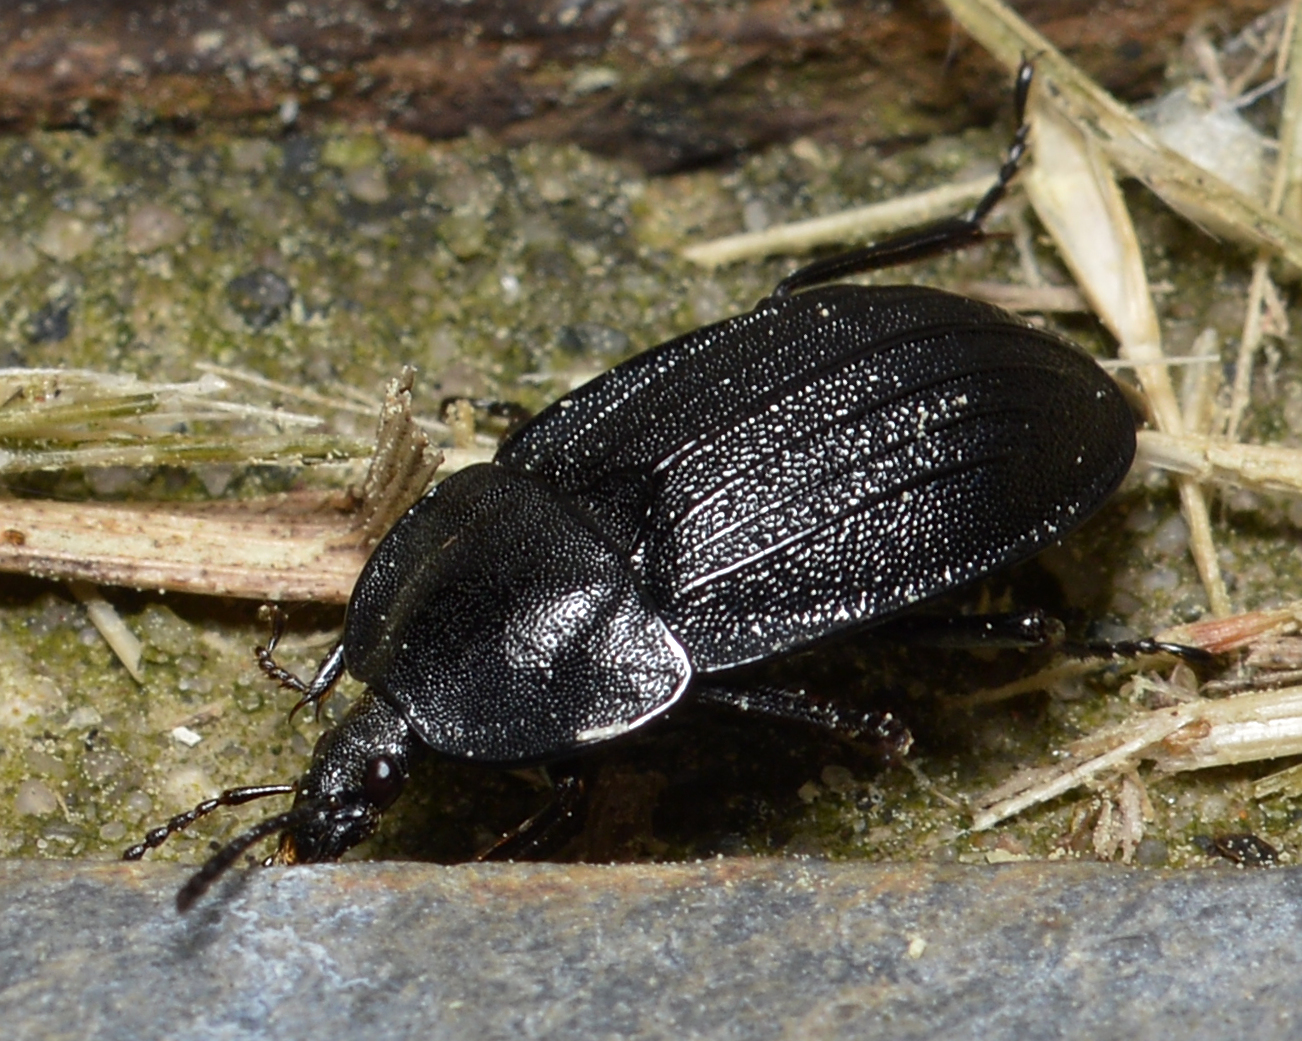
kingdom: Animalia
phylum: Arthropoda
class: Insecta
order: Coleoptera
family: Staphylinidae
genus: Silpha
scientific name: Silpha atrata
